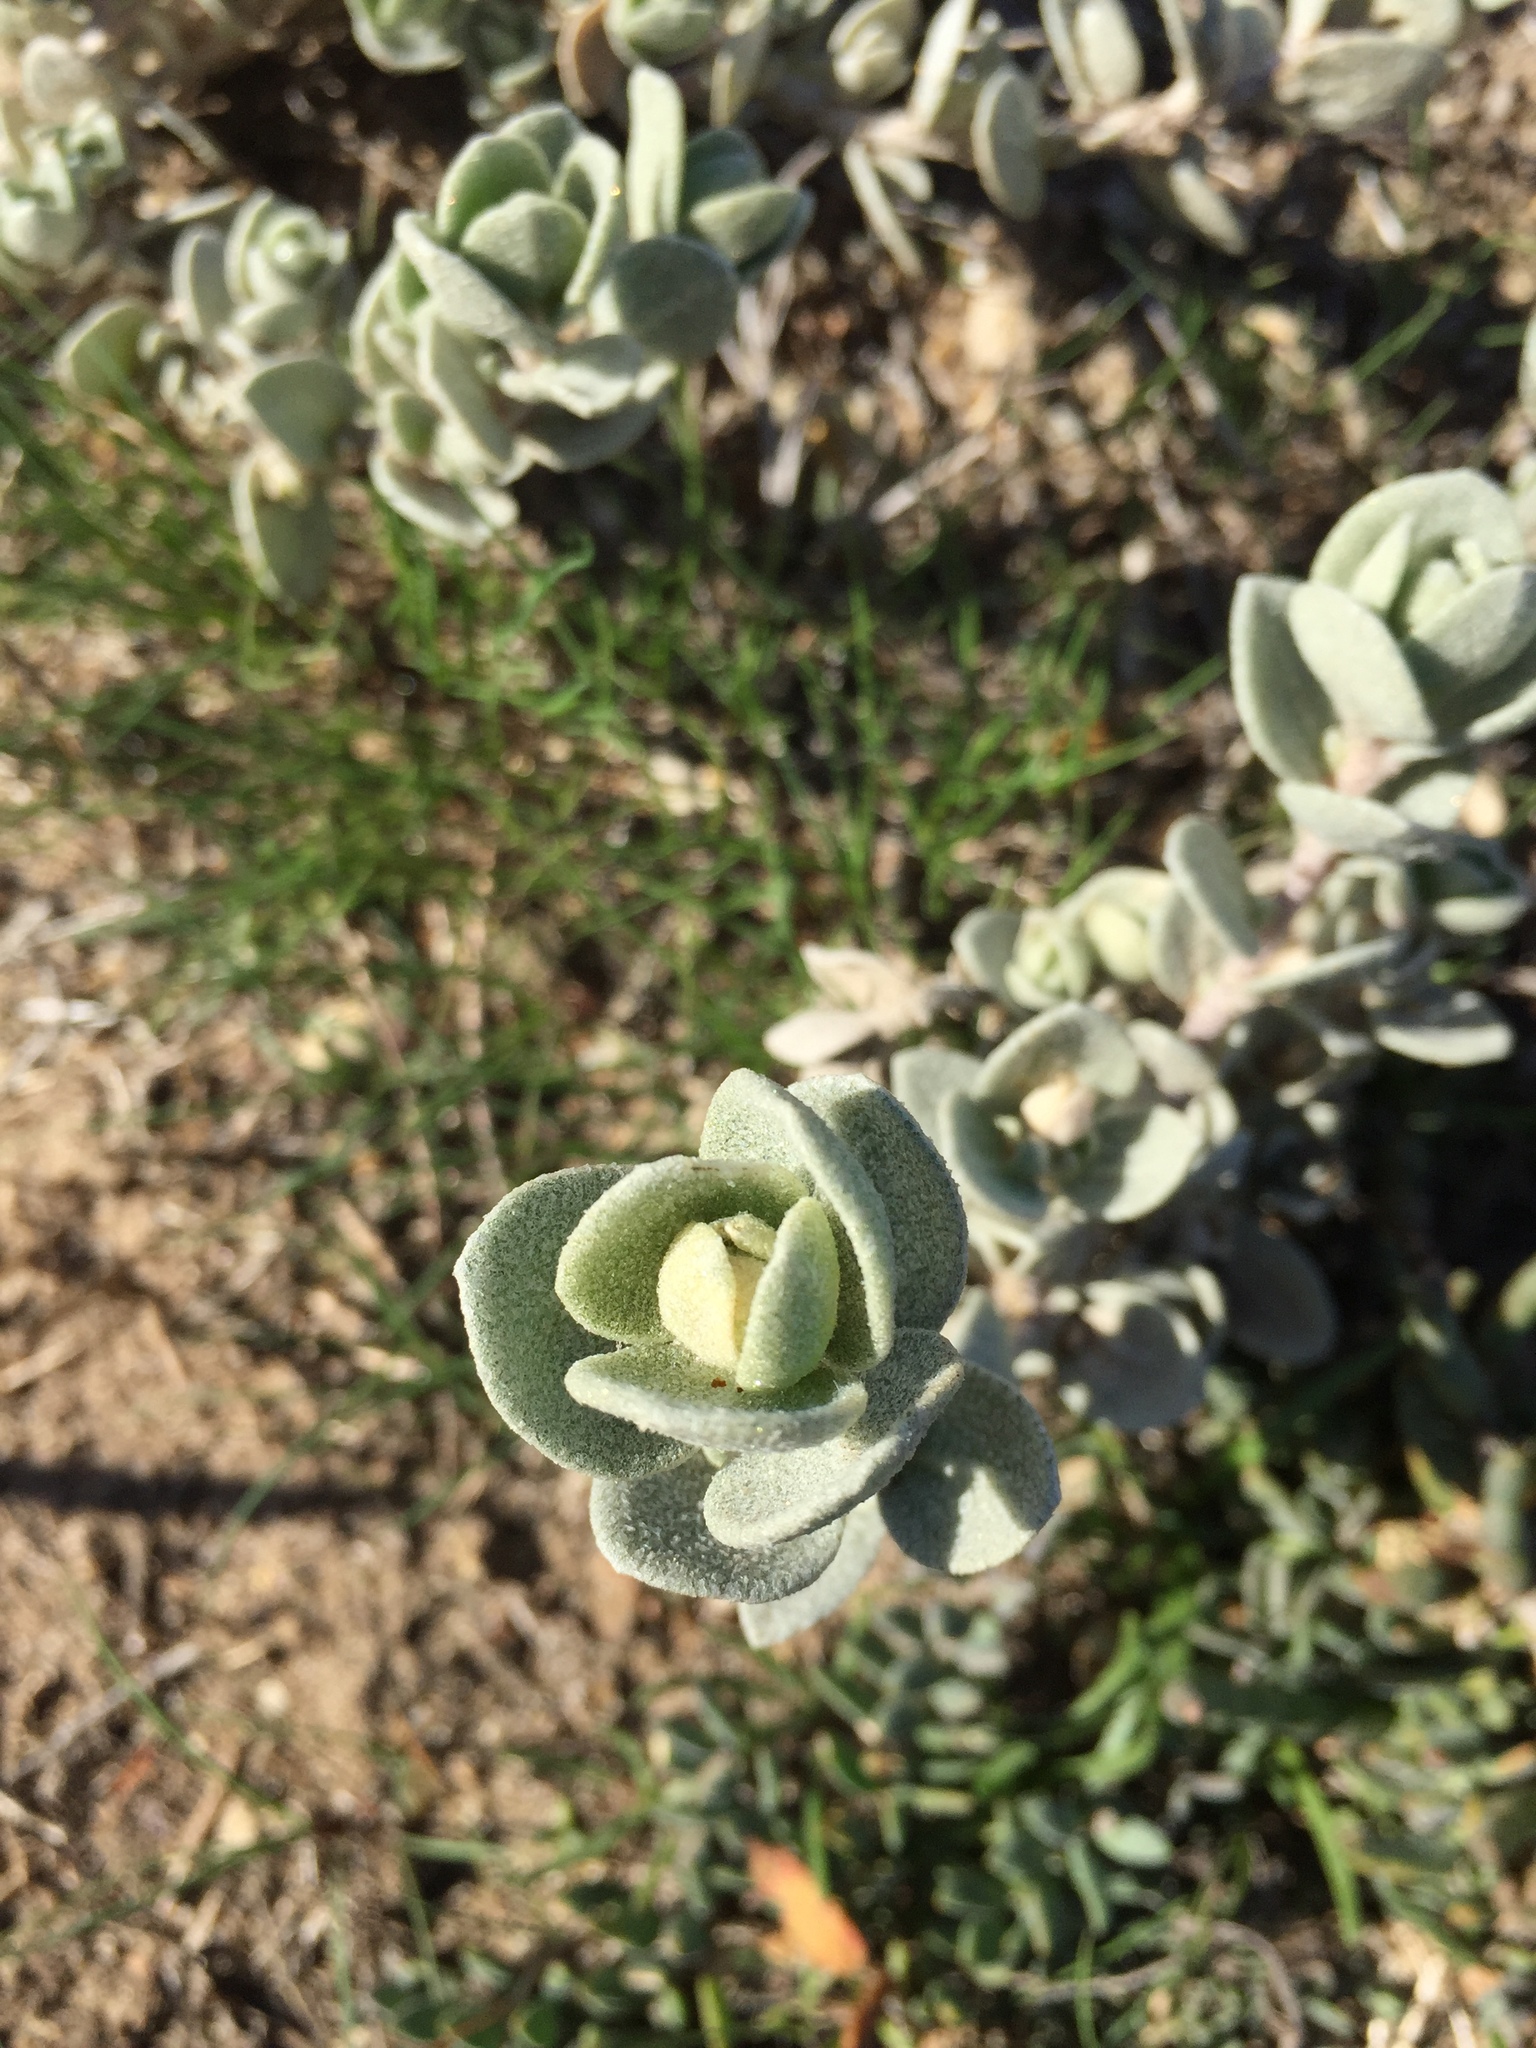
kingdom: Plantae
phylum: Tracheophyta
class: Magnoliopsida
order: Caryophyllales
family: Amaranthaceae
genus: Atriplex
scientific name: Atriplex leucophylla
